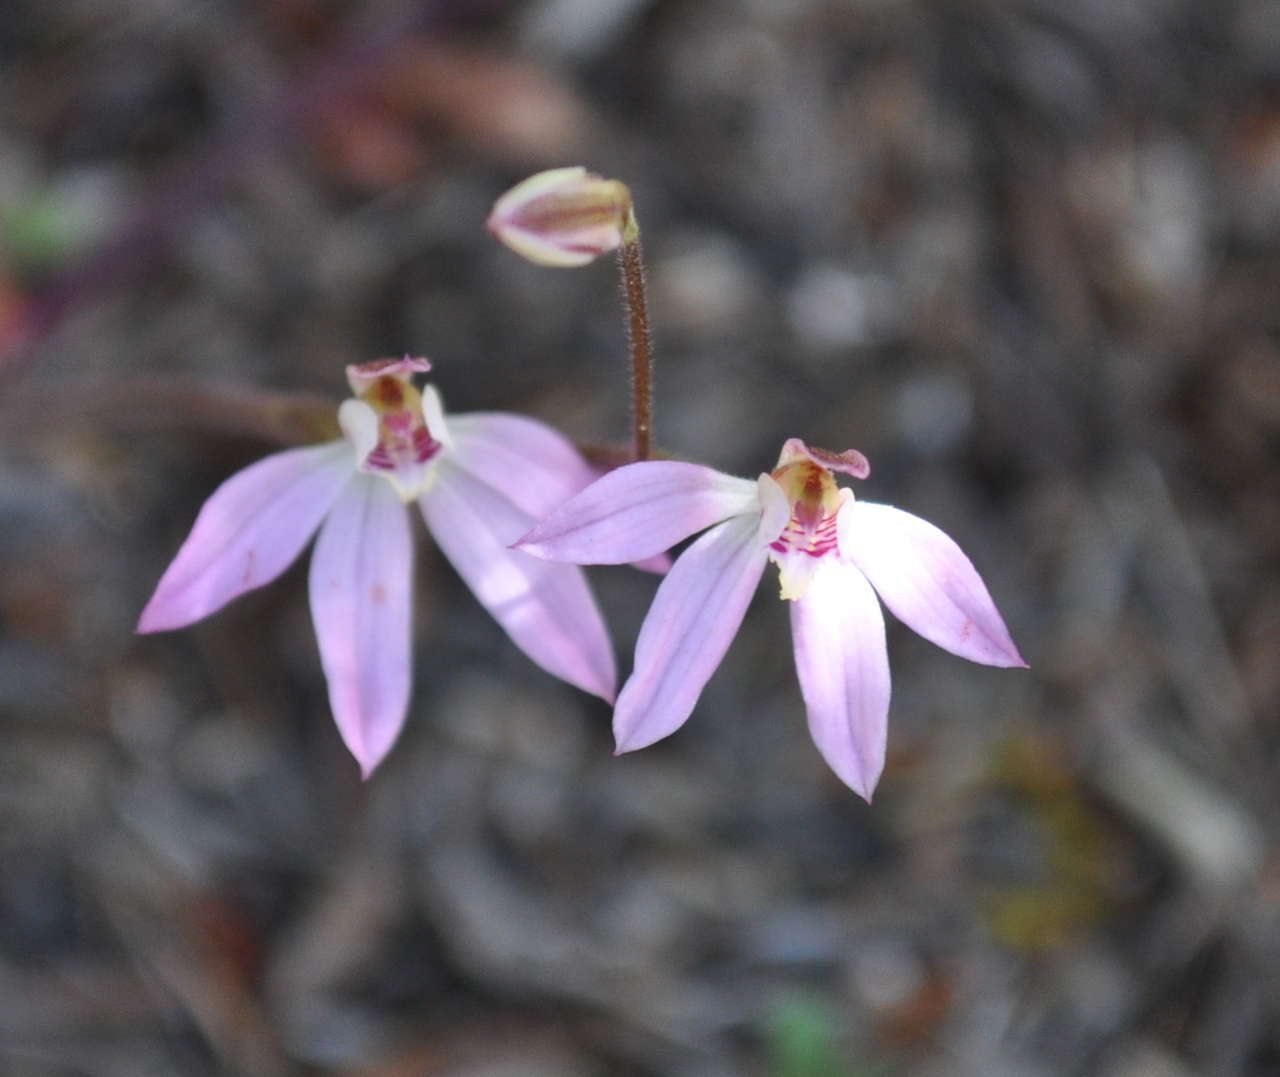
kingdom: Plantae
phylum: Tracheophyta
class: Liliopsida
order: Asparagales
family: Orchidaceae
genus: Caladenia
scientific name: Caladenia carnea
